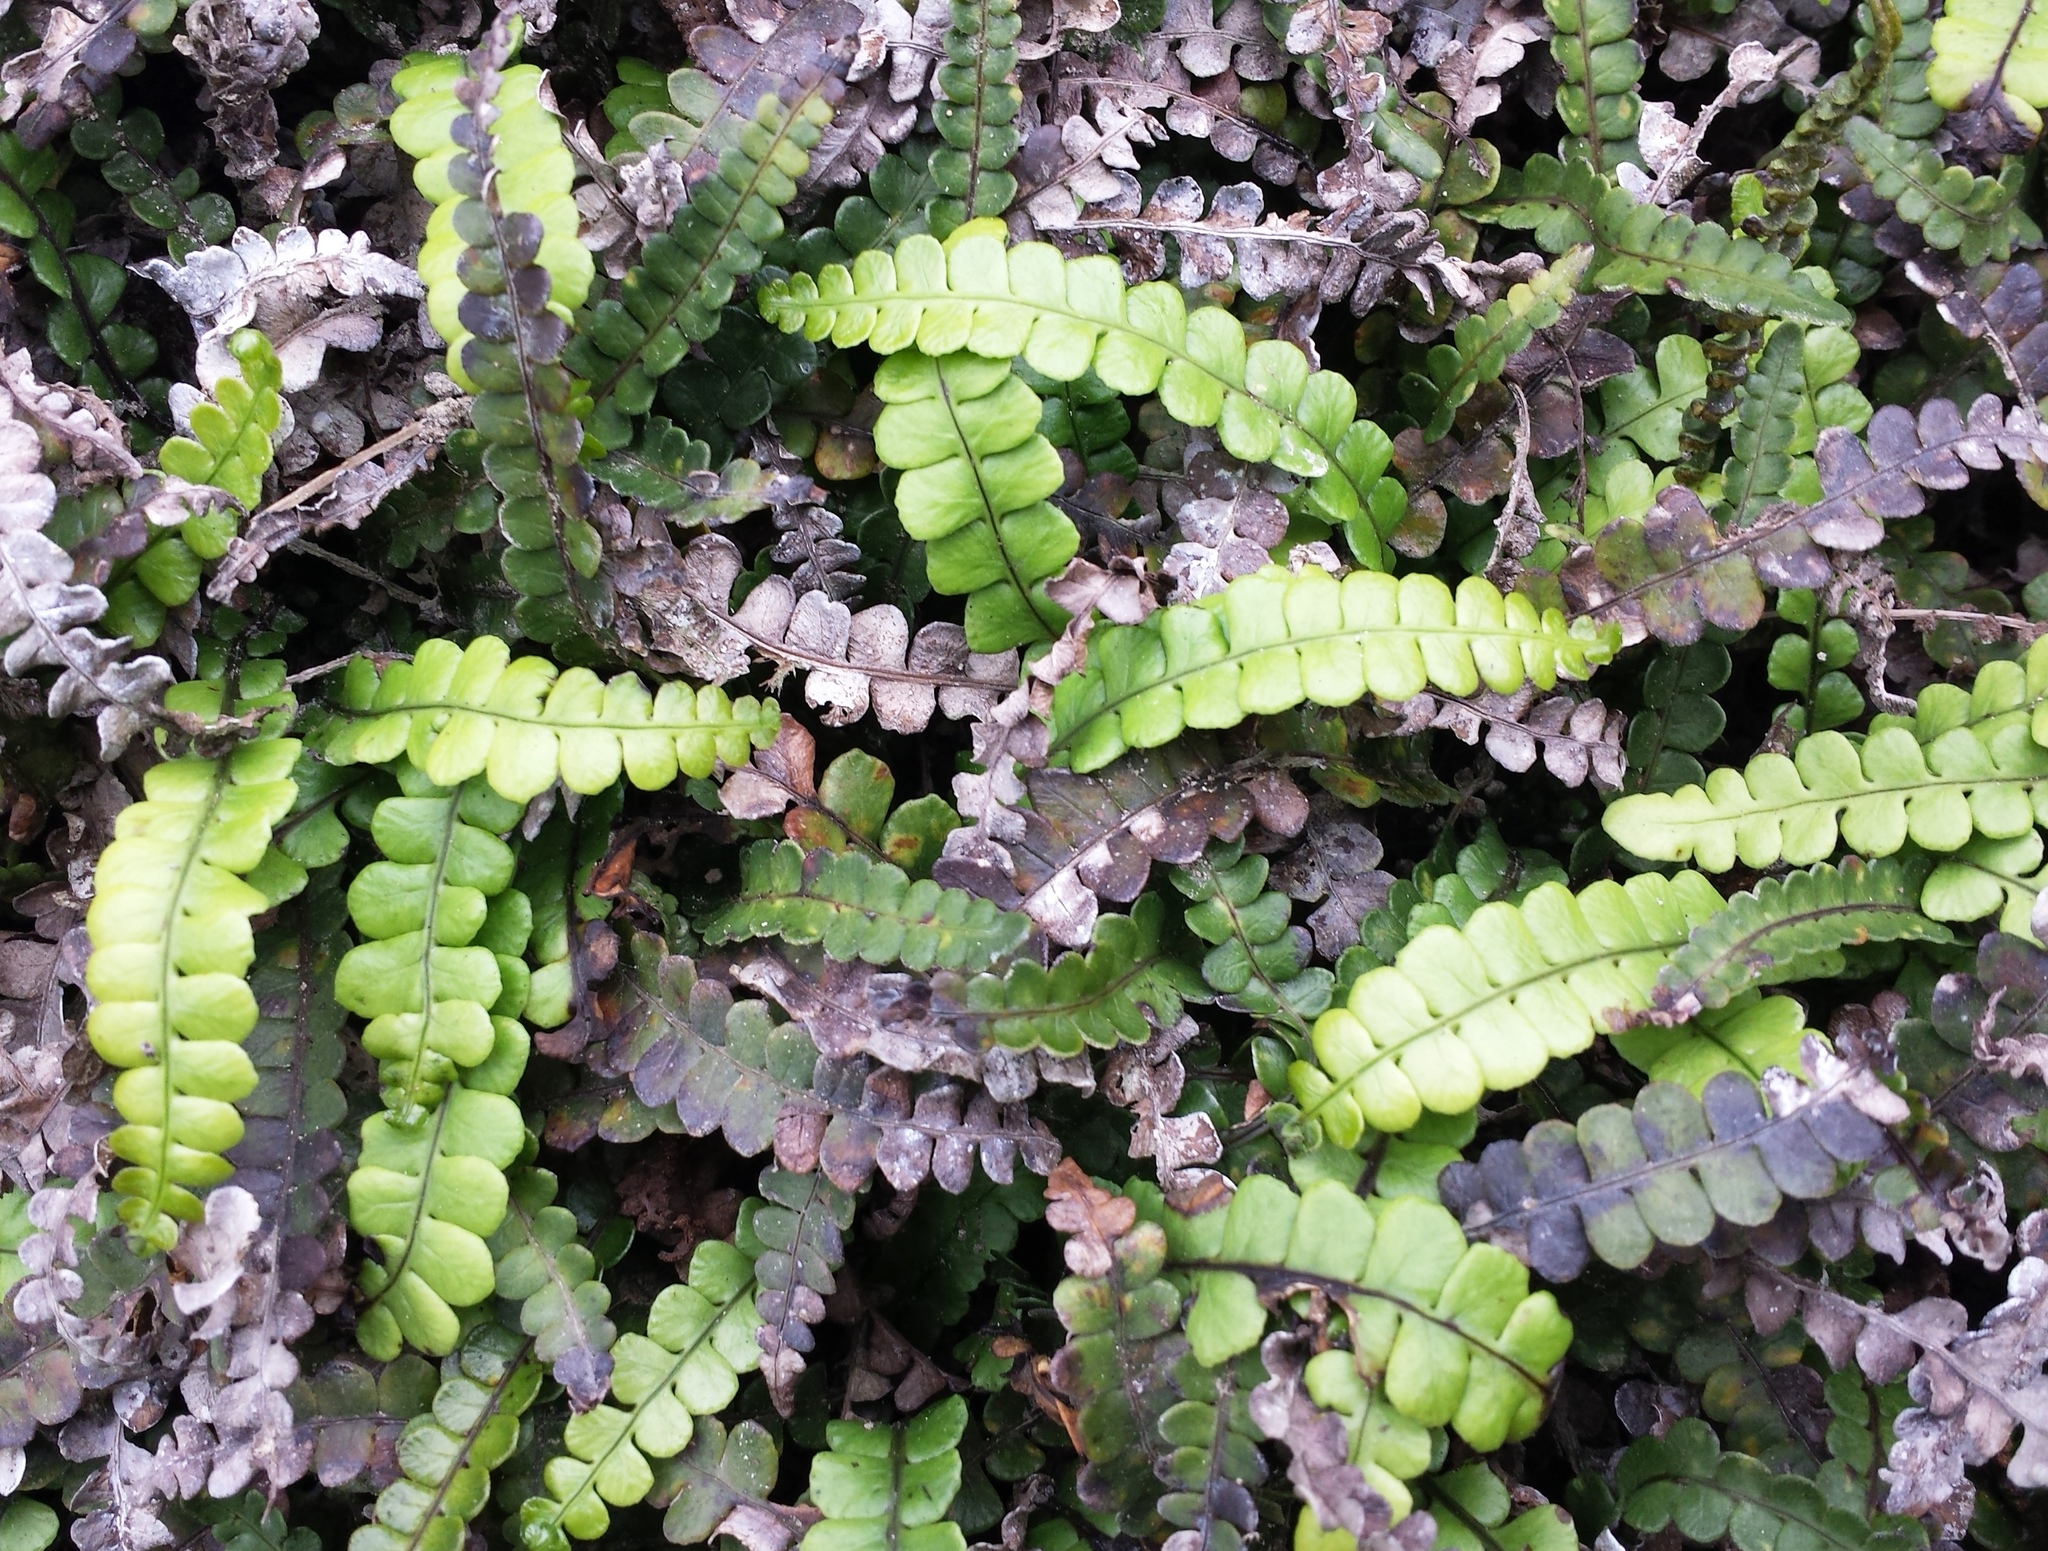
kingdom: Plantae
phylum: Tracheophyta
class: Polypodiopsida
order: Polypodiales
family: Blechnaceae
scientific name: Blechnaceae
